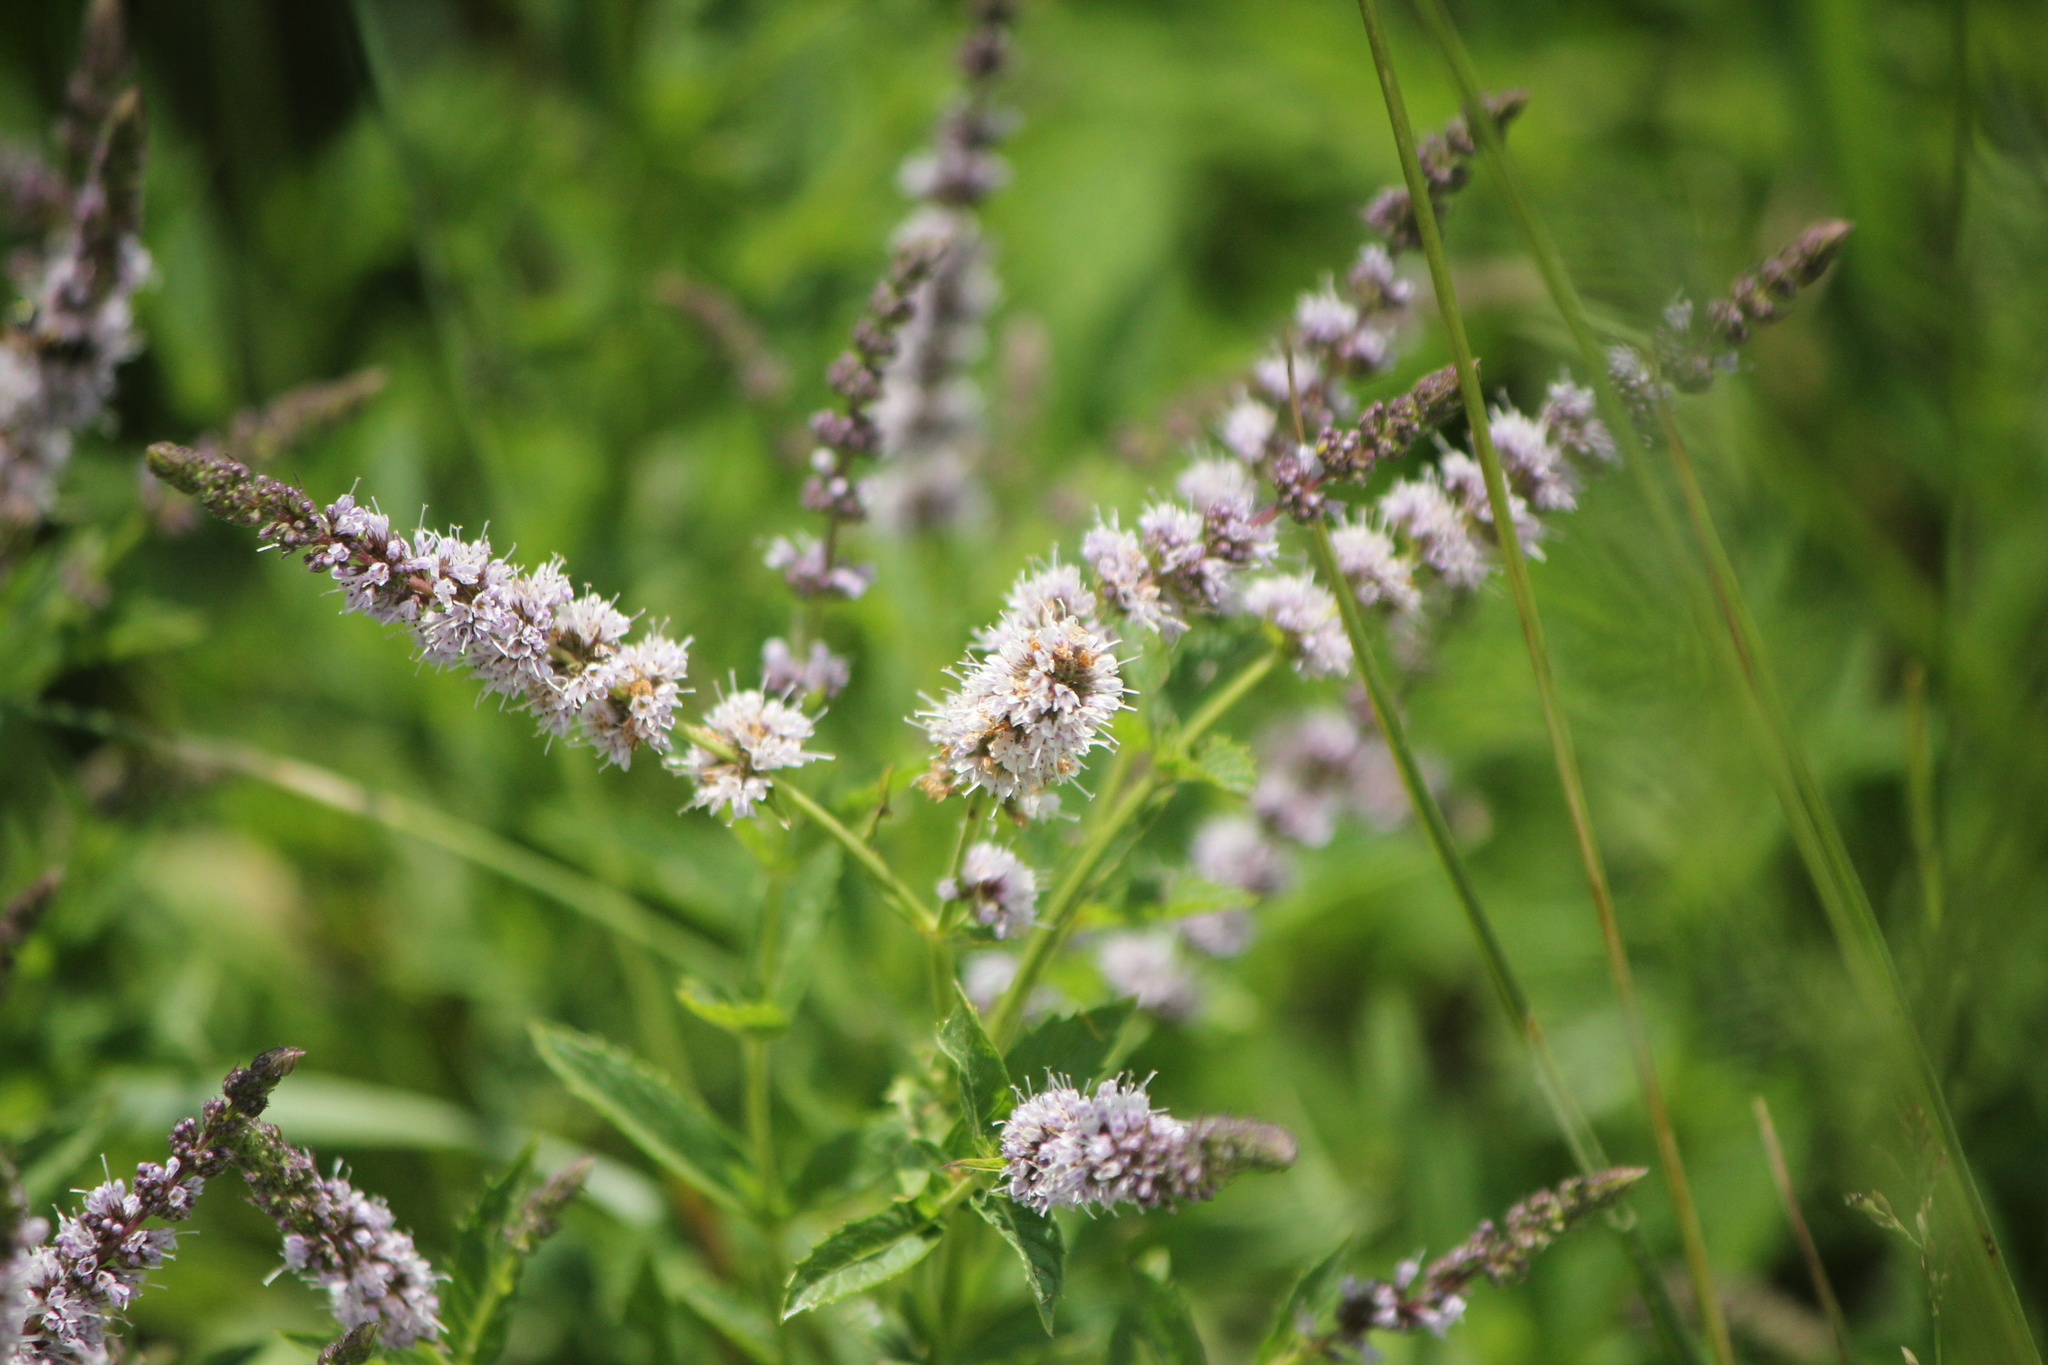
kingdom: Plantae
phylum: Tracheophyta
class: Magnoliopsida
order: Lamiales
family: Lamiaceae
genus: Mentha
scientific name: Mentha spicata
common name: Spearmint
